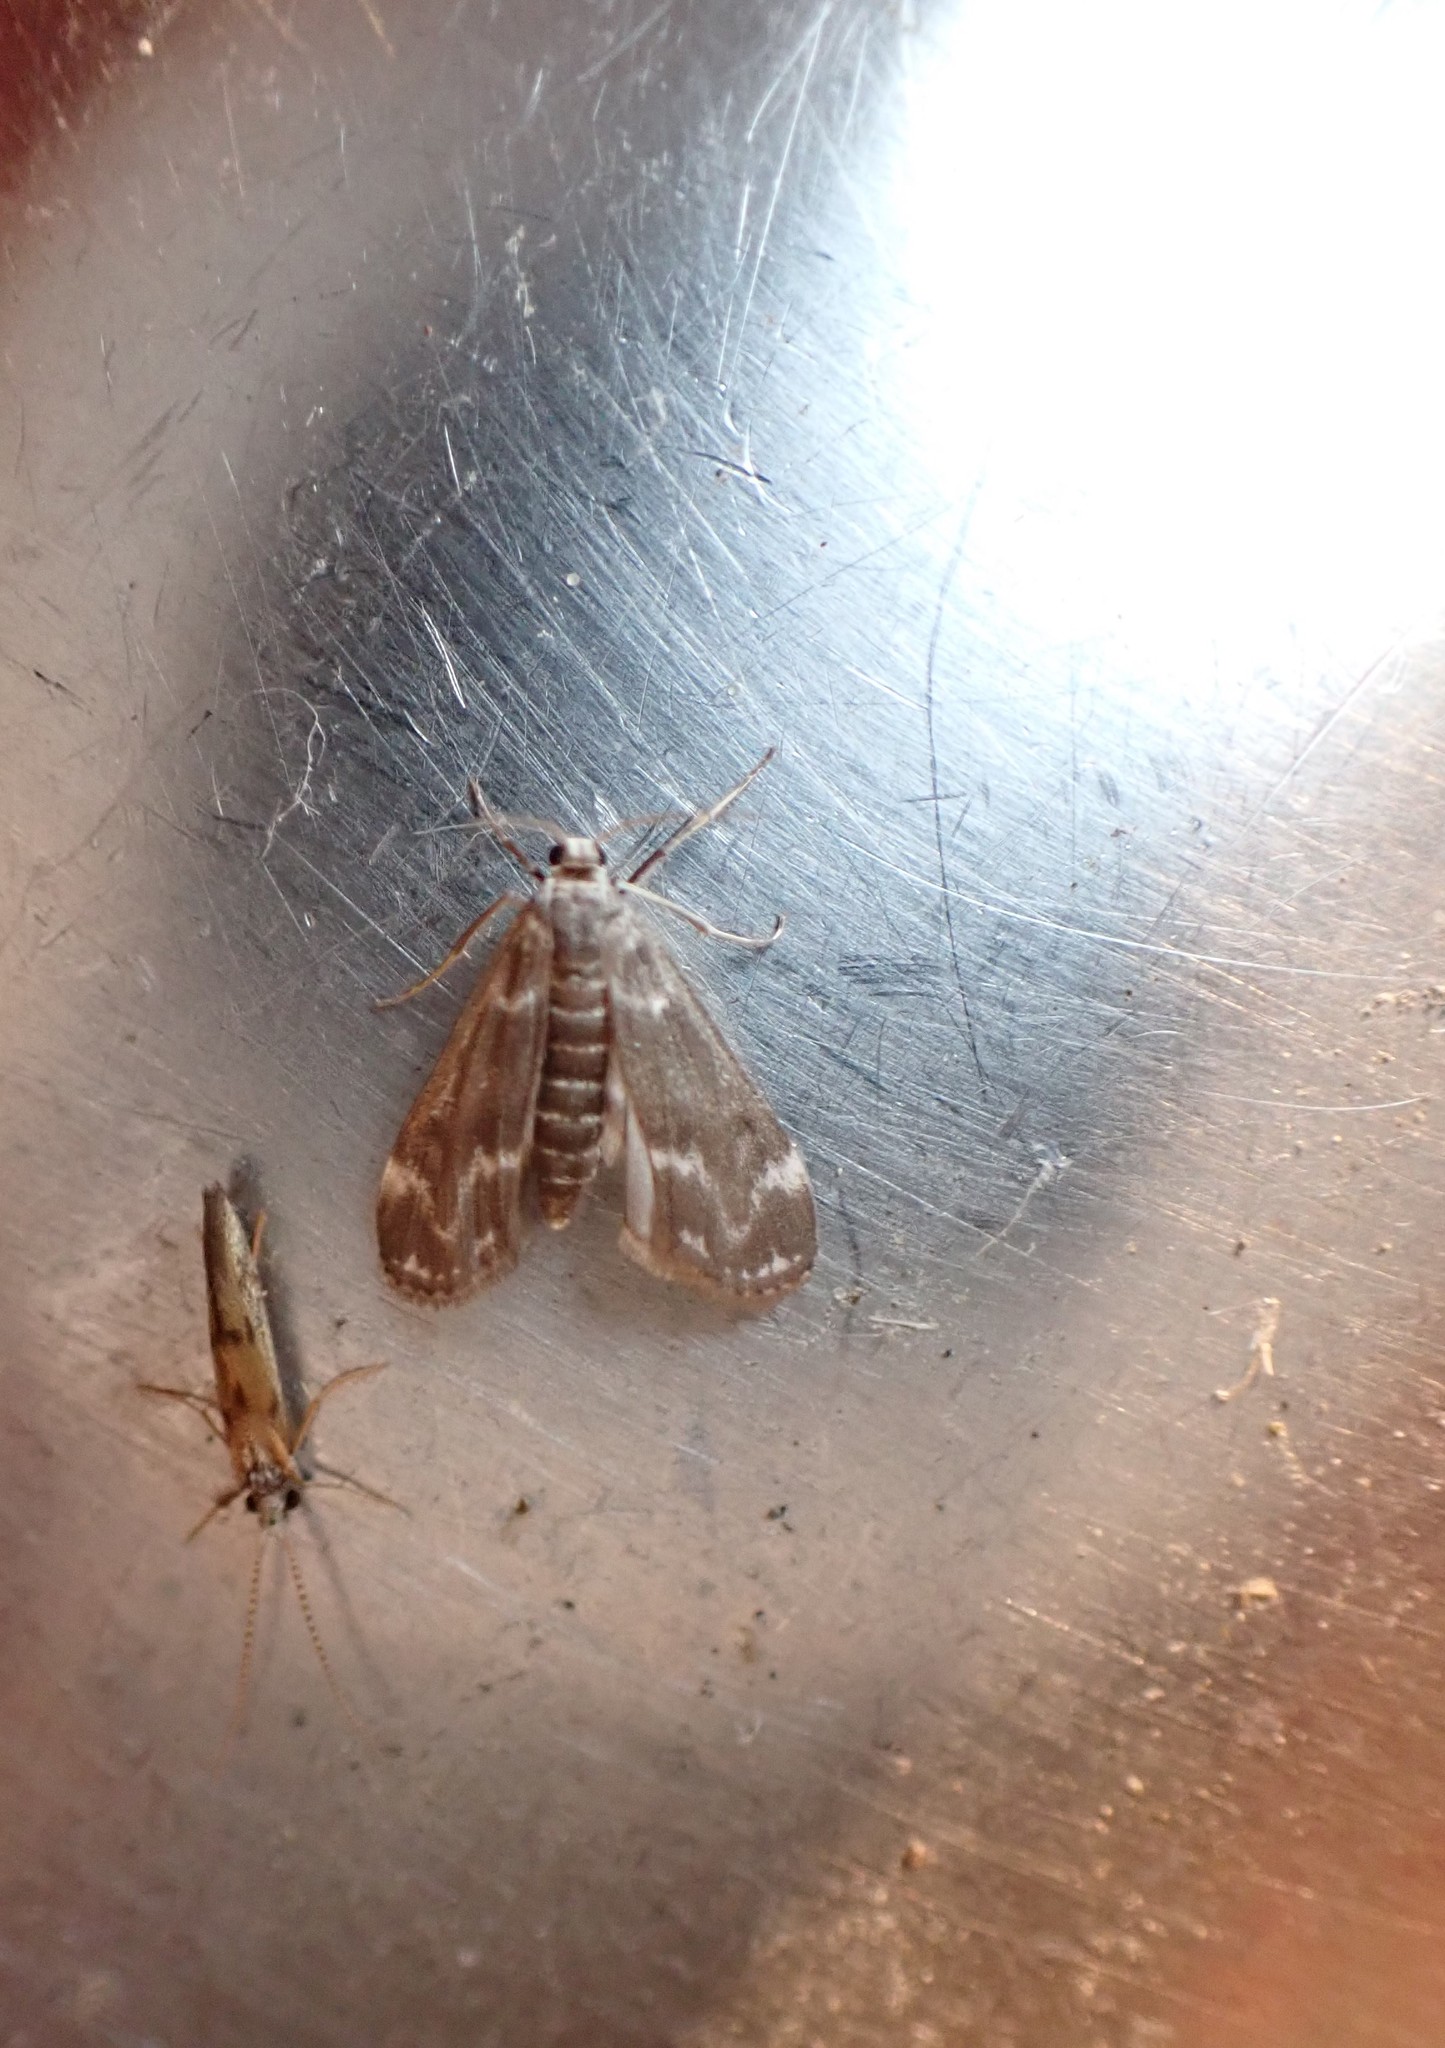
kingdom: Animalia
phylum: Arthropoda
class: Insecta
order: Lepidoptera
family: Crambidae
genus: Hygraula
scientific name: Hygraula nitens
